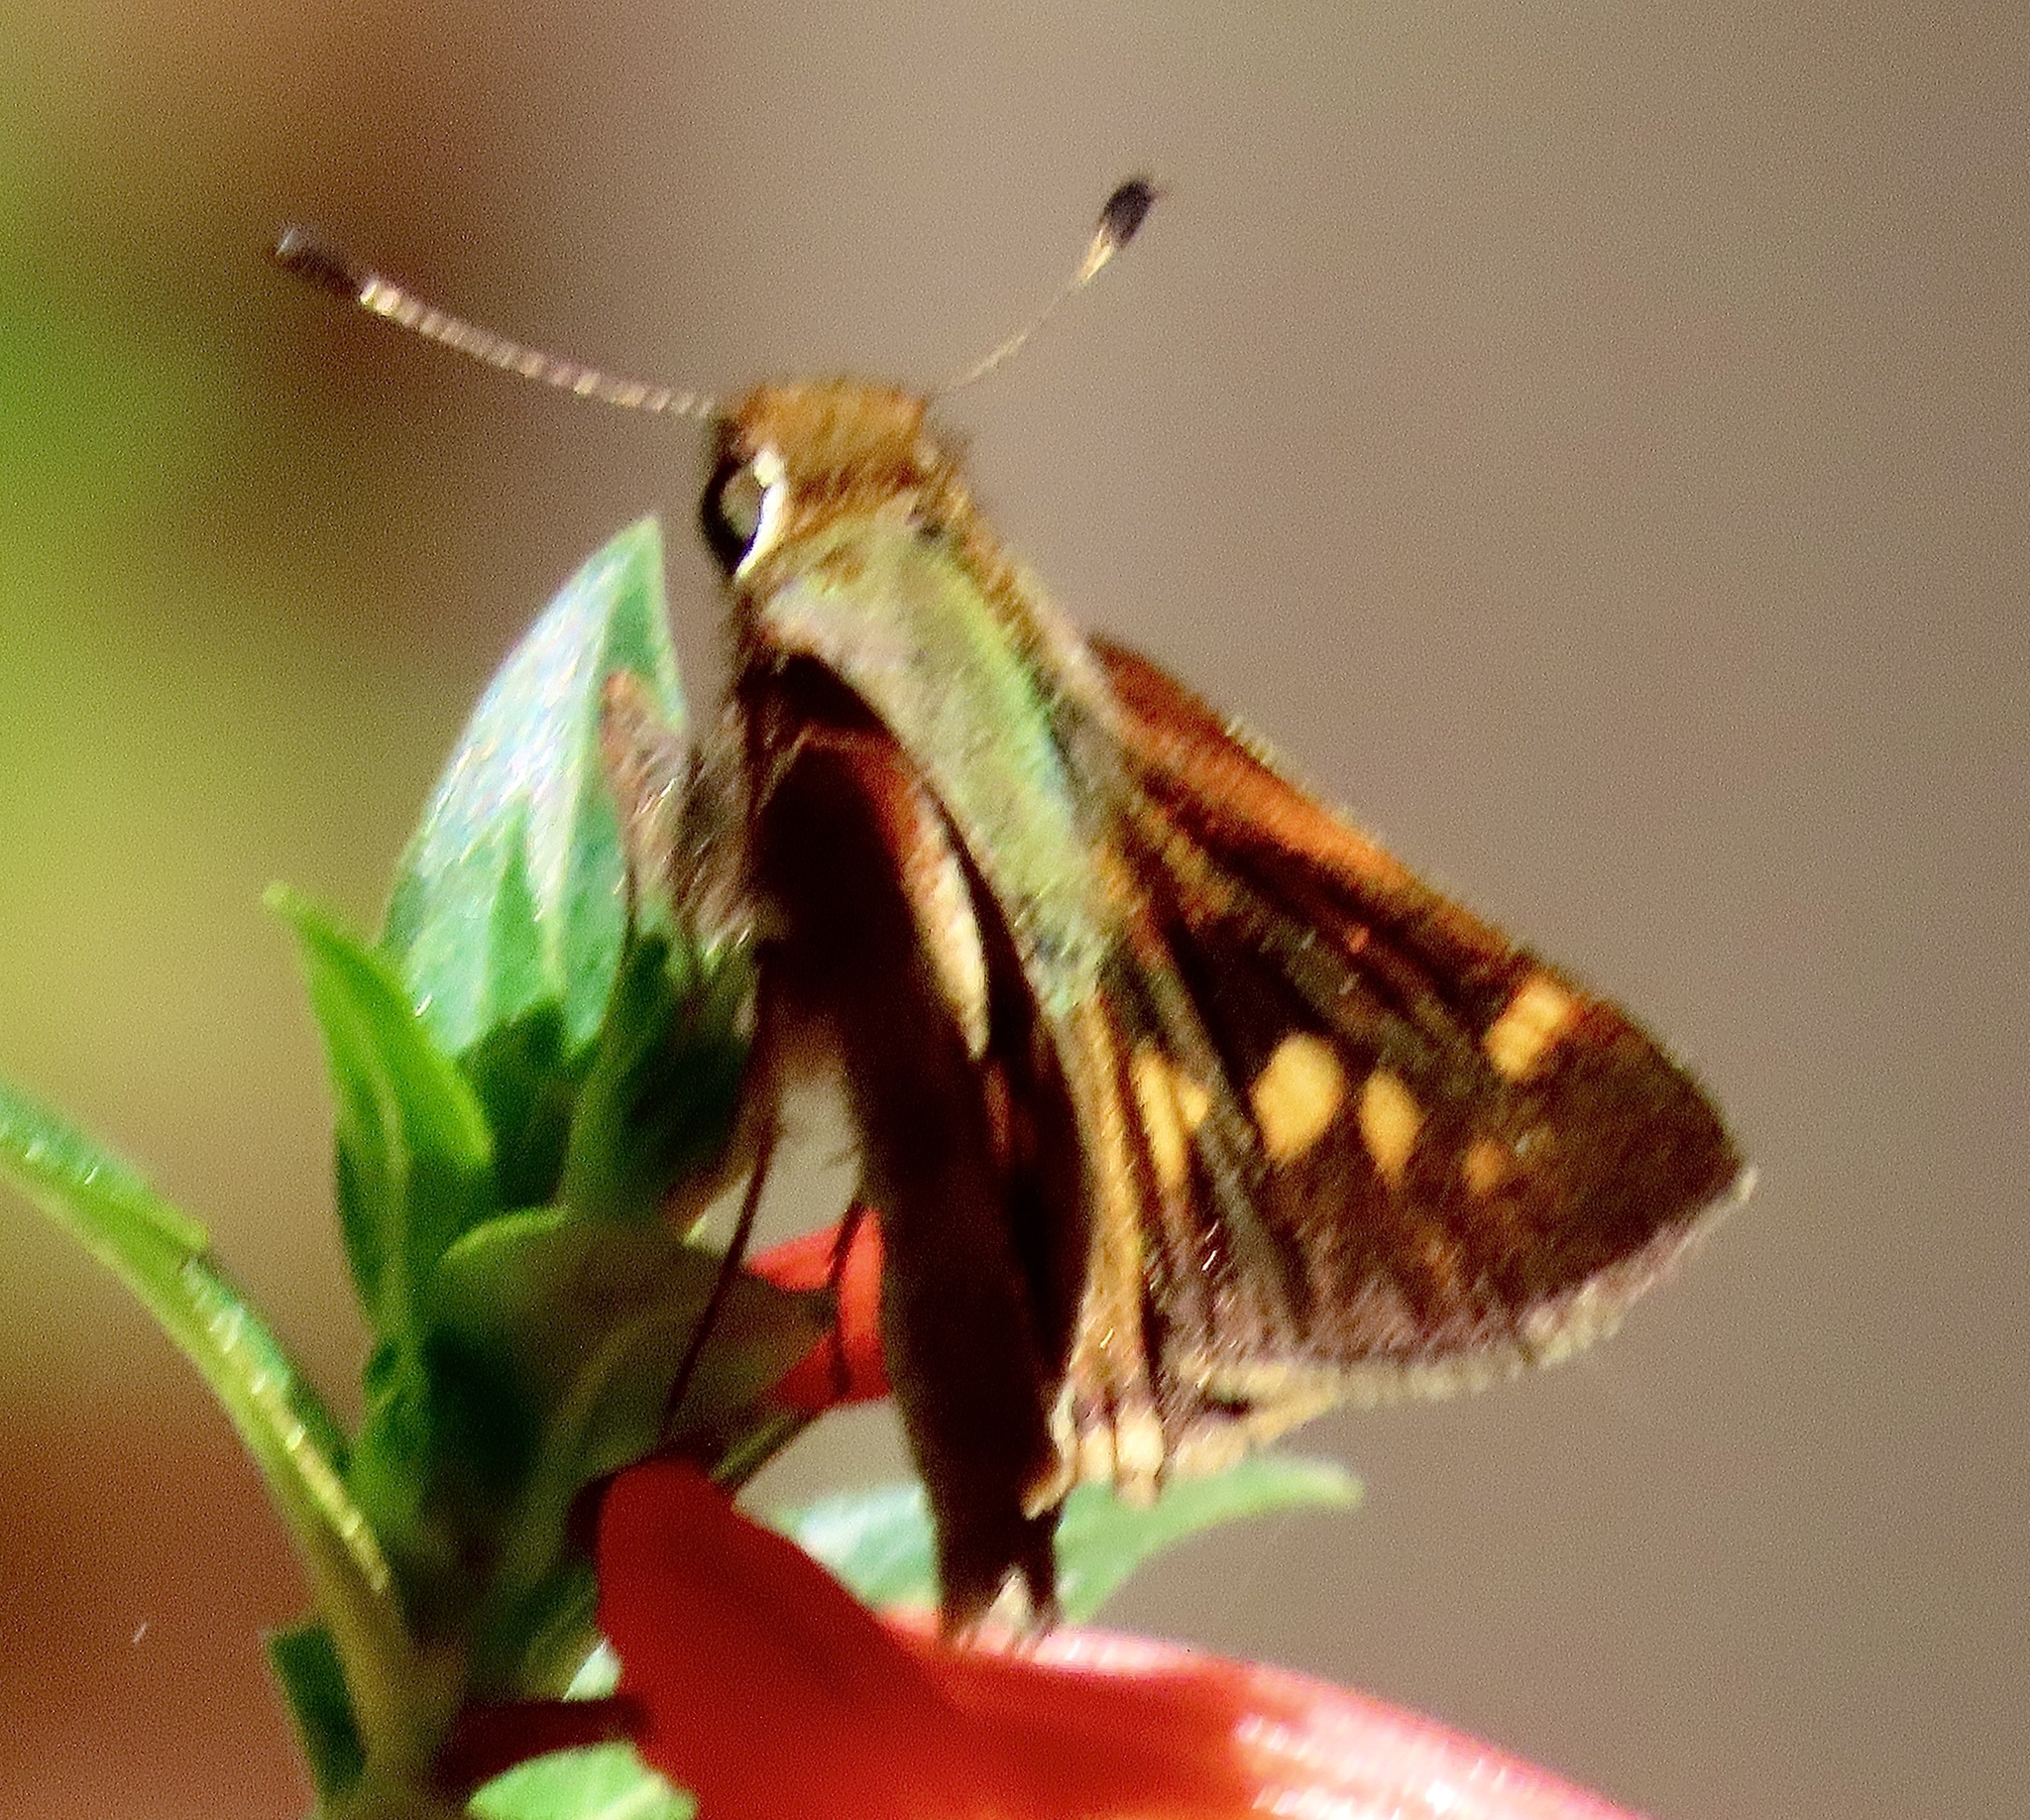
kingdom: Animalia
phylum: Arthropoda
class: Insecta
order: Lepidoptera
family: Hesperiidae
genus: Lon
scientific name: Lon melane
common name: Umber skipper
